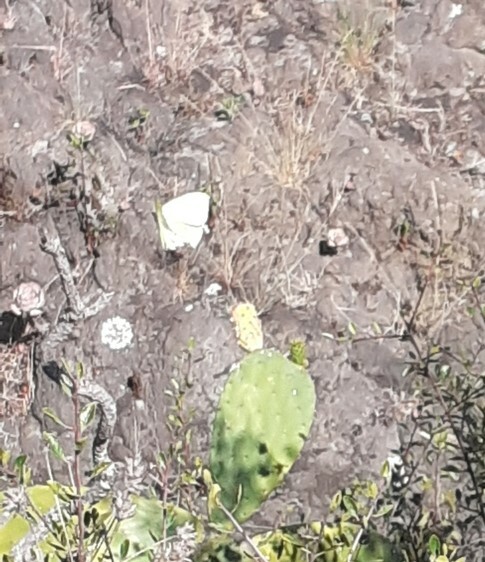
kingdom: Animalia
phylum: Arthropoda
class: Insecta
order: Lepidoptera
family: Pieridae
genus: Gonepteryx
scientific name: Gonepteryx cleobule
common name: Canary brimstone
